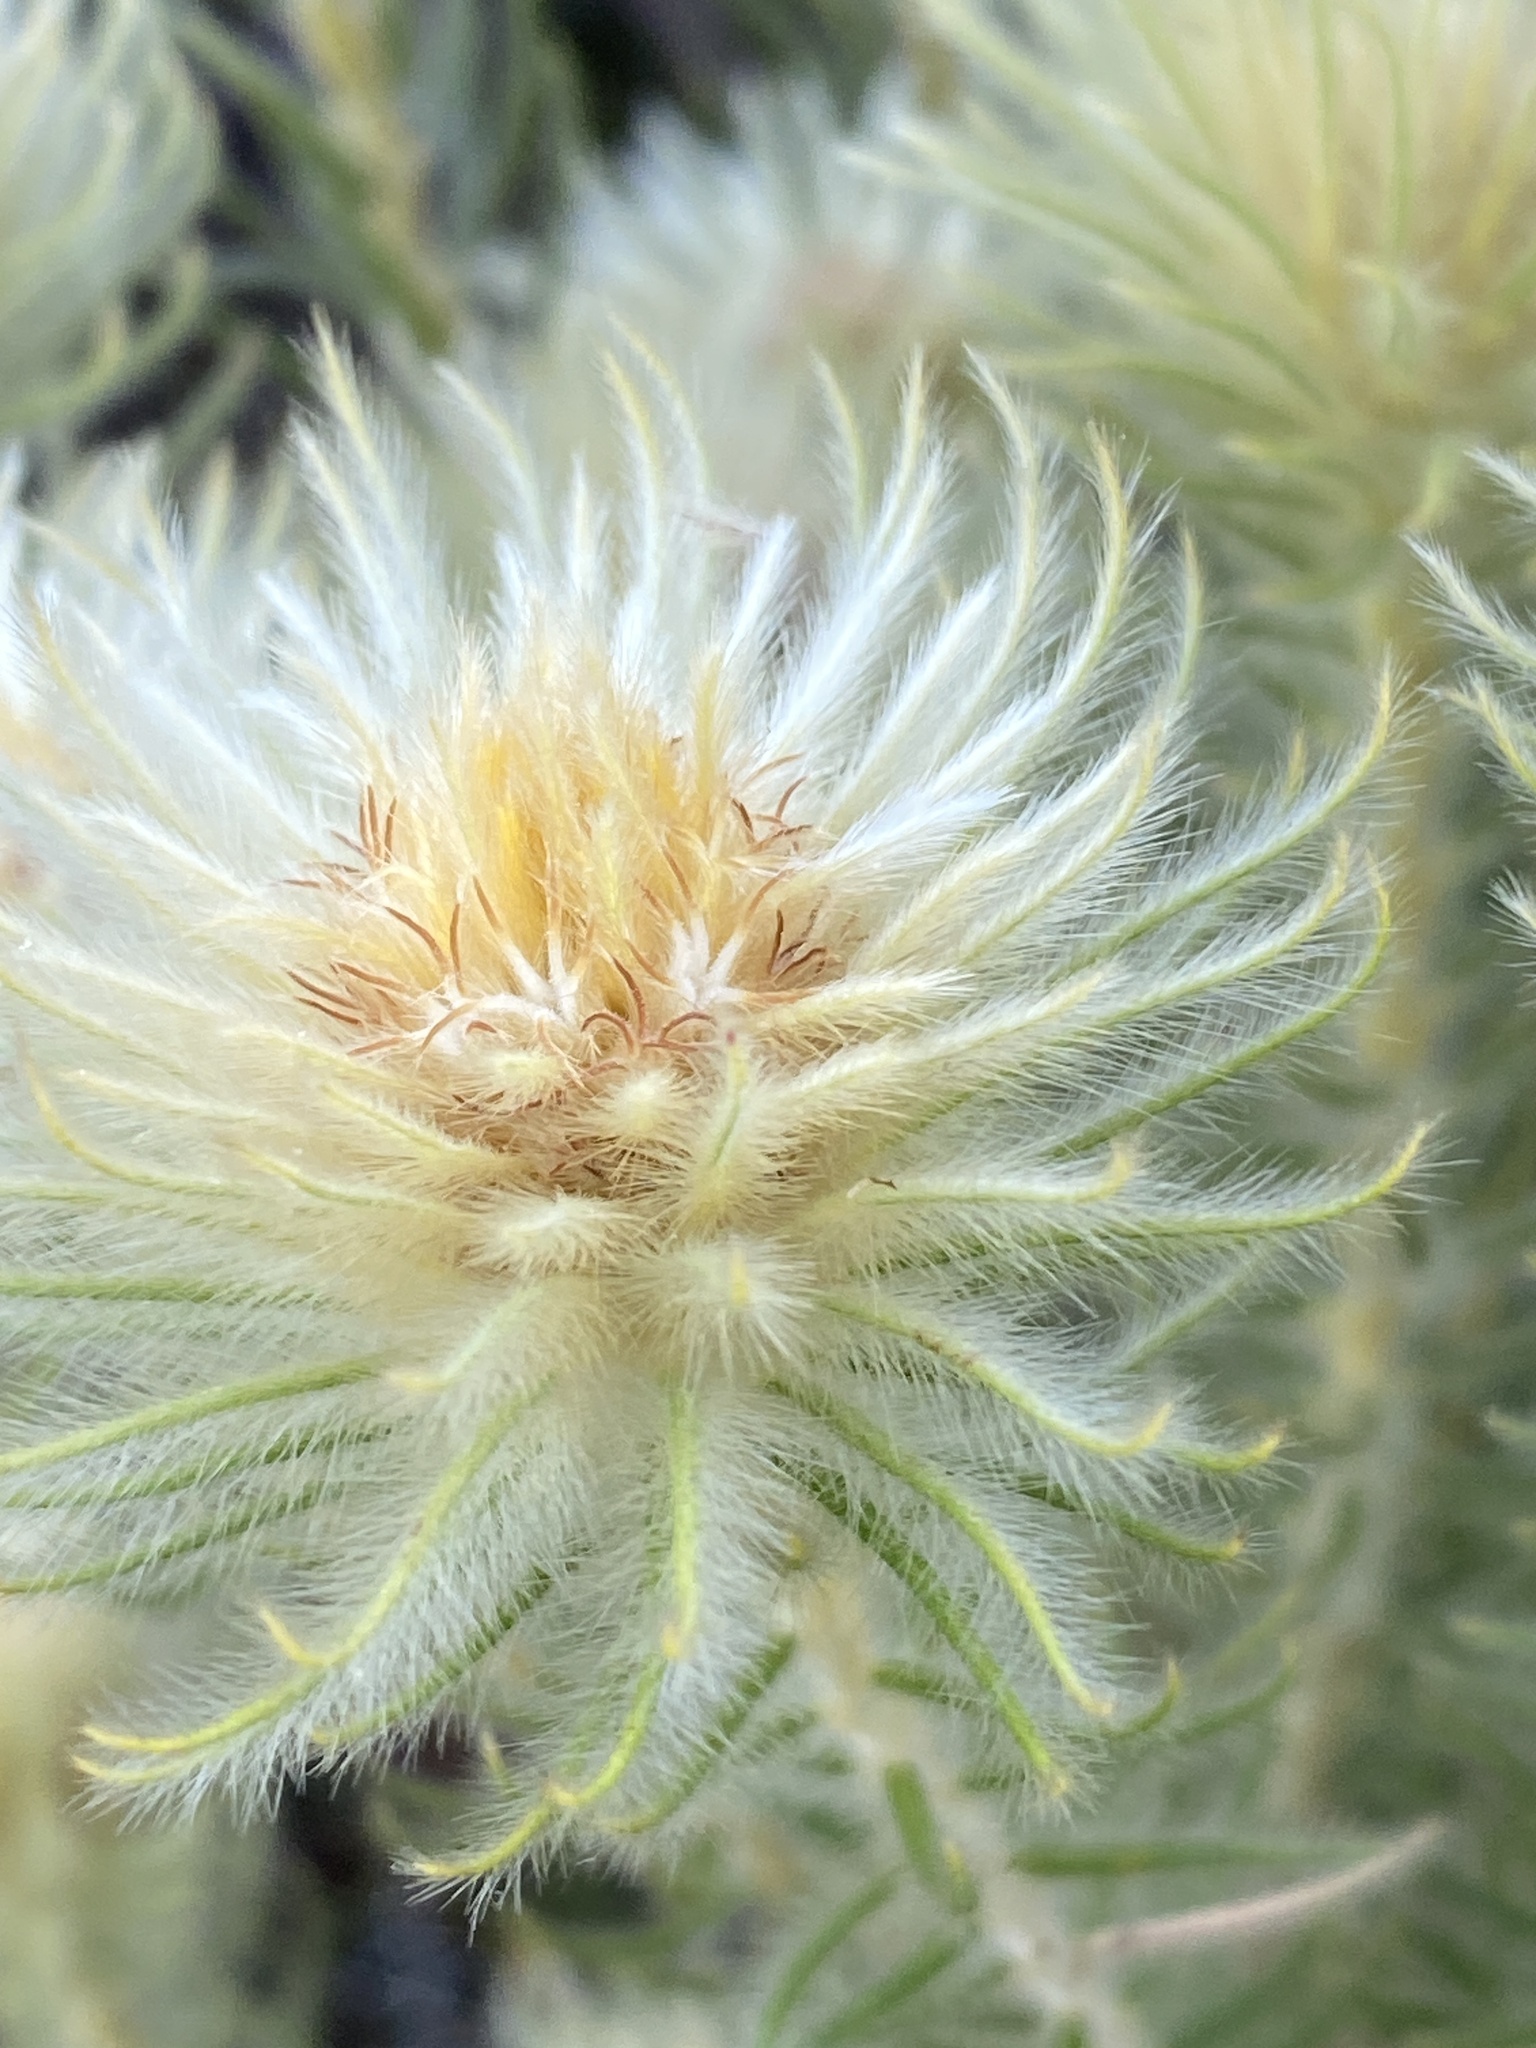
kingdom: Plantae
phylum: Tracheophyta
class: Magnoliopsida
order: Rosales
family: Rhamnaceae
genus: Phylica
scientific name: Phylica pubescens
